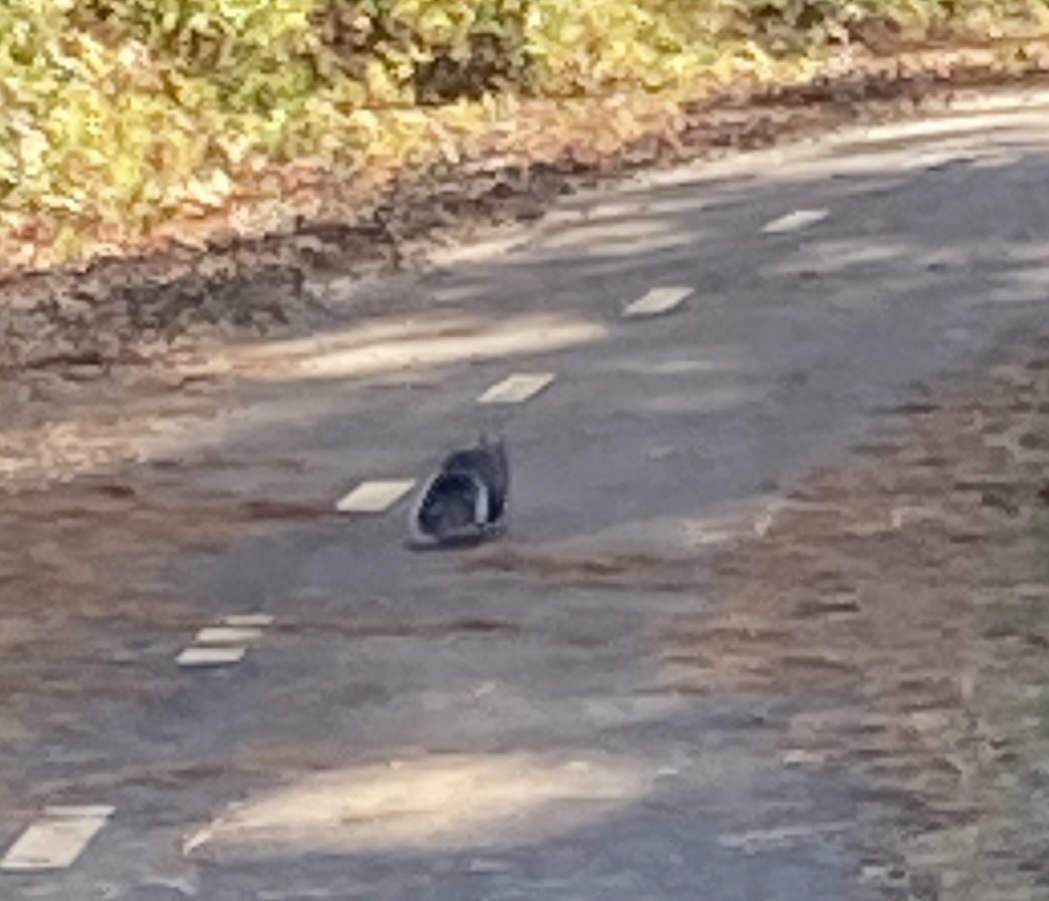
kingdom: Animalia
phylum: Chordata
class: Mammalia
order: Rodentia
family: Sciuridae
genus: Sciurus
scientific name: Sciurus griseus
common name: Western gray squirrel
